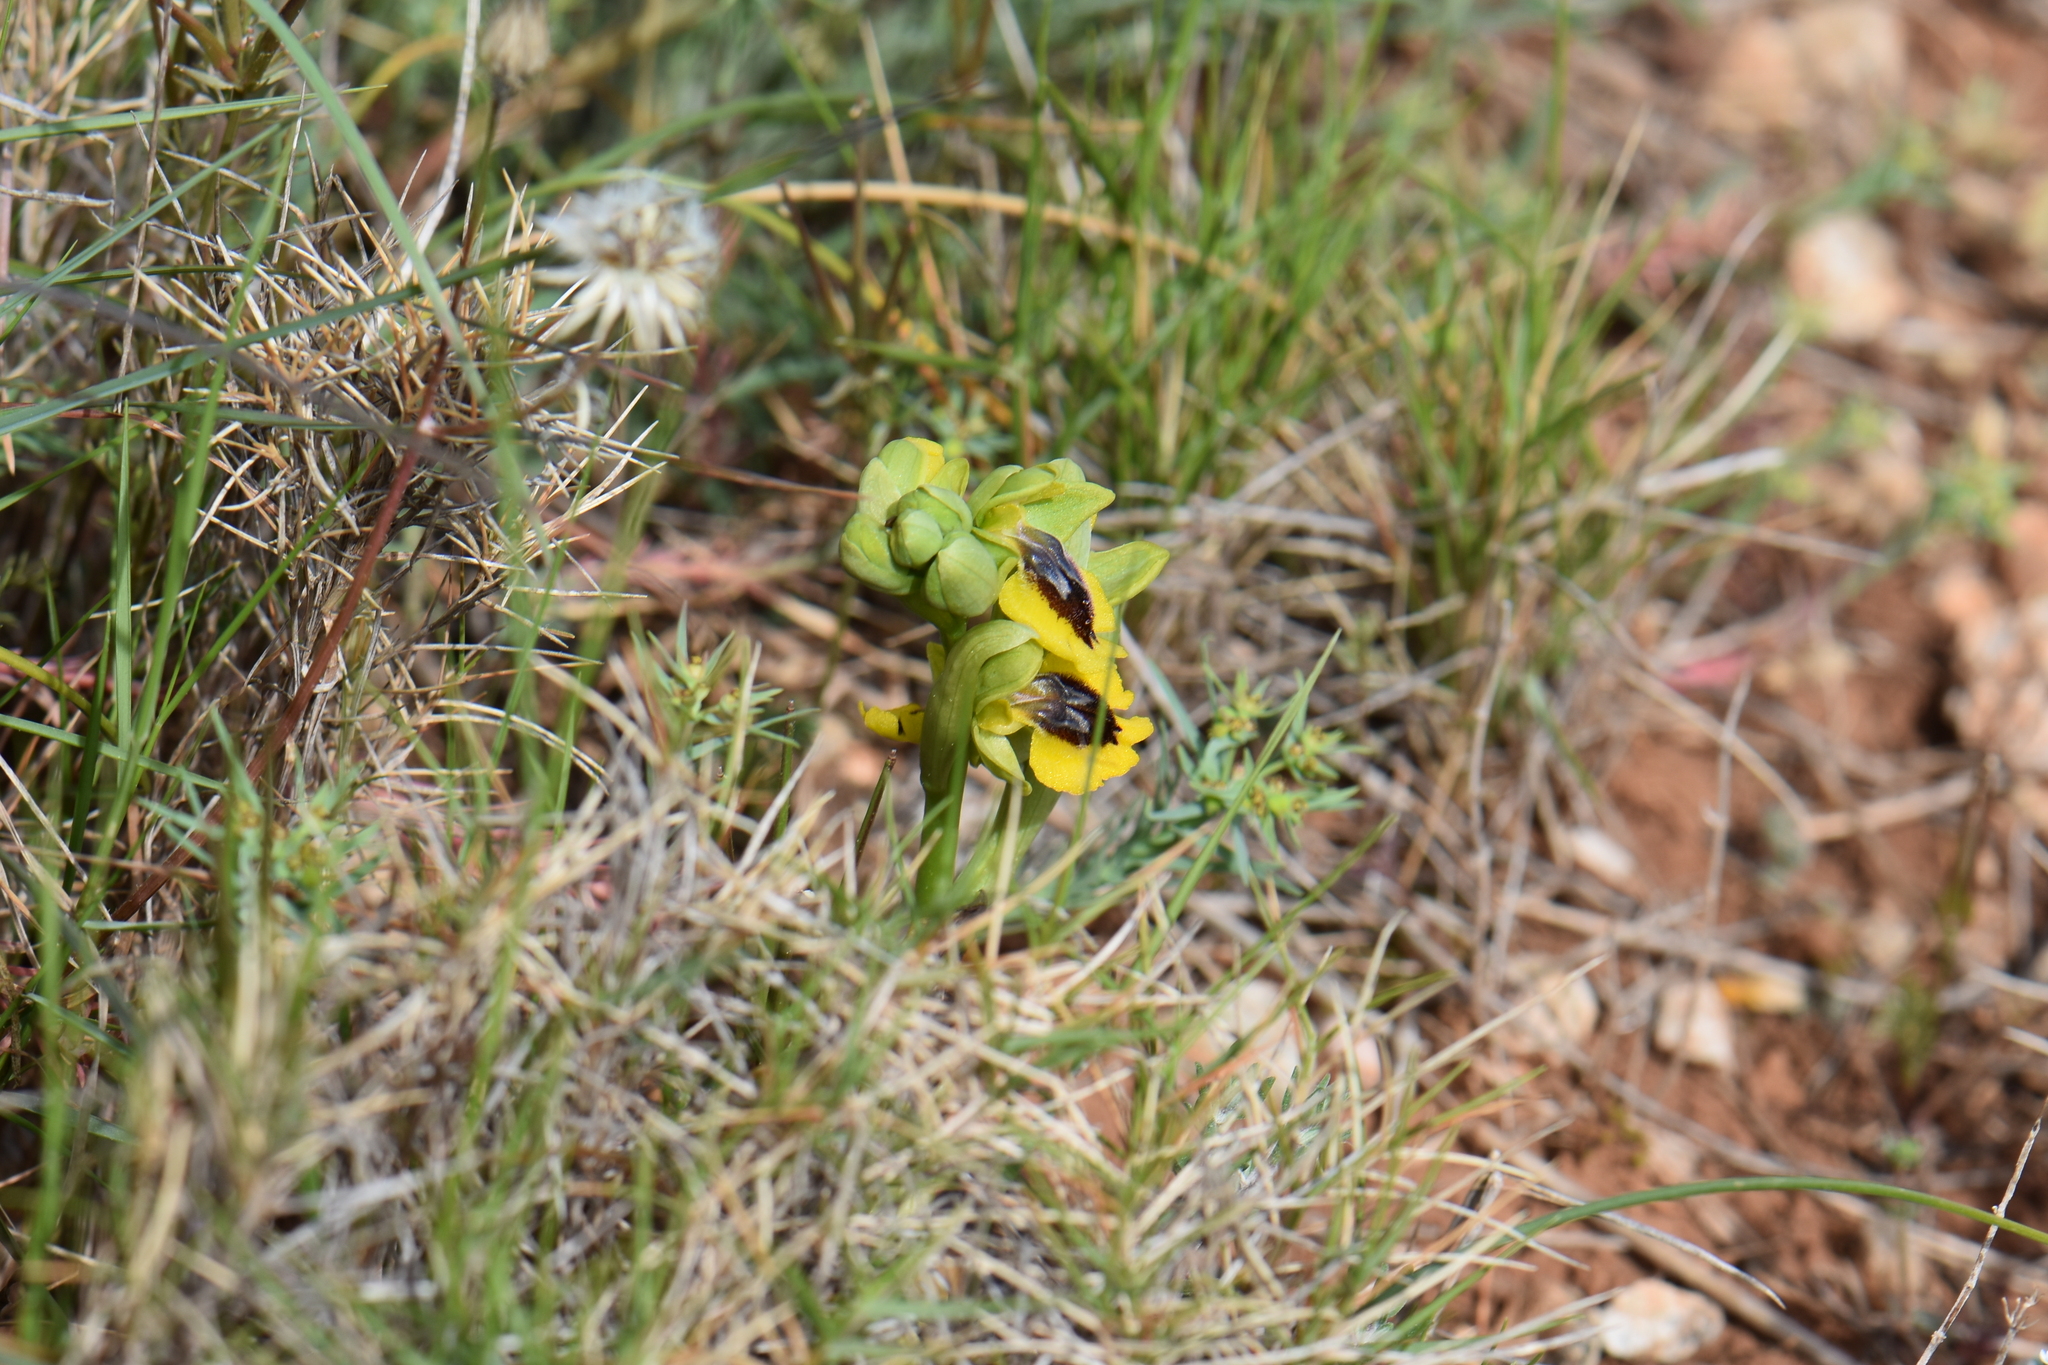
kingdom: Plantae
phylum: Tracheophyta
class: Liliopsida
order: Asparagales
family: Orchidaceae
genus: Ophrys
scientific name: Ophrys lutea
